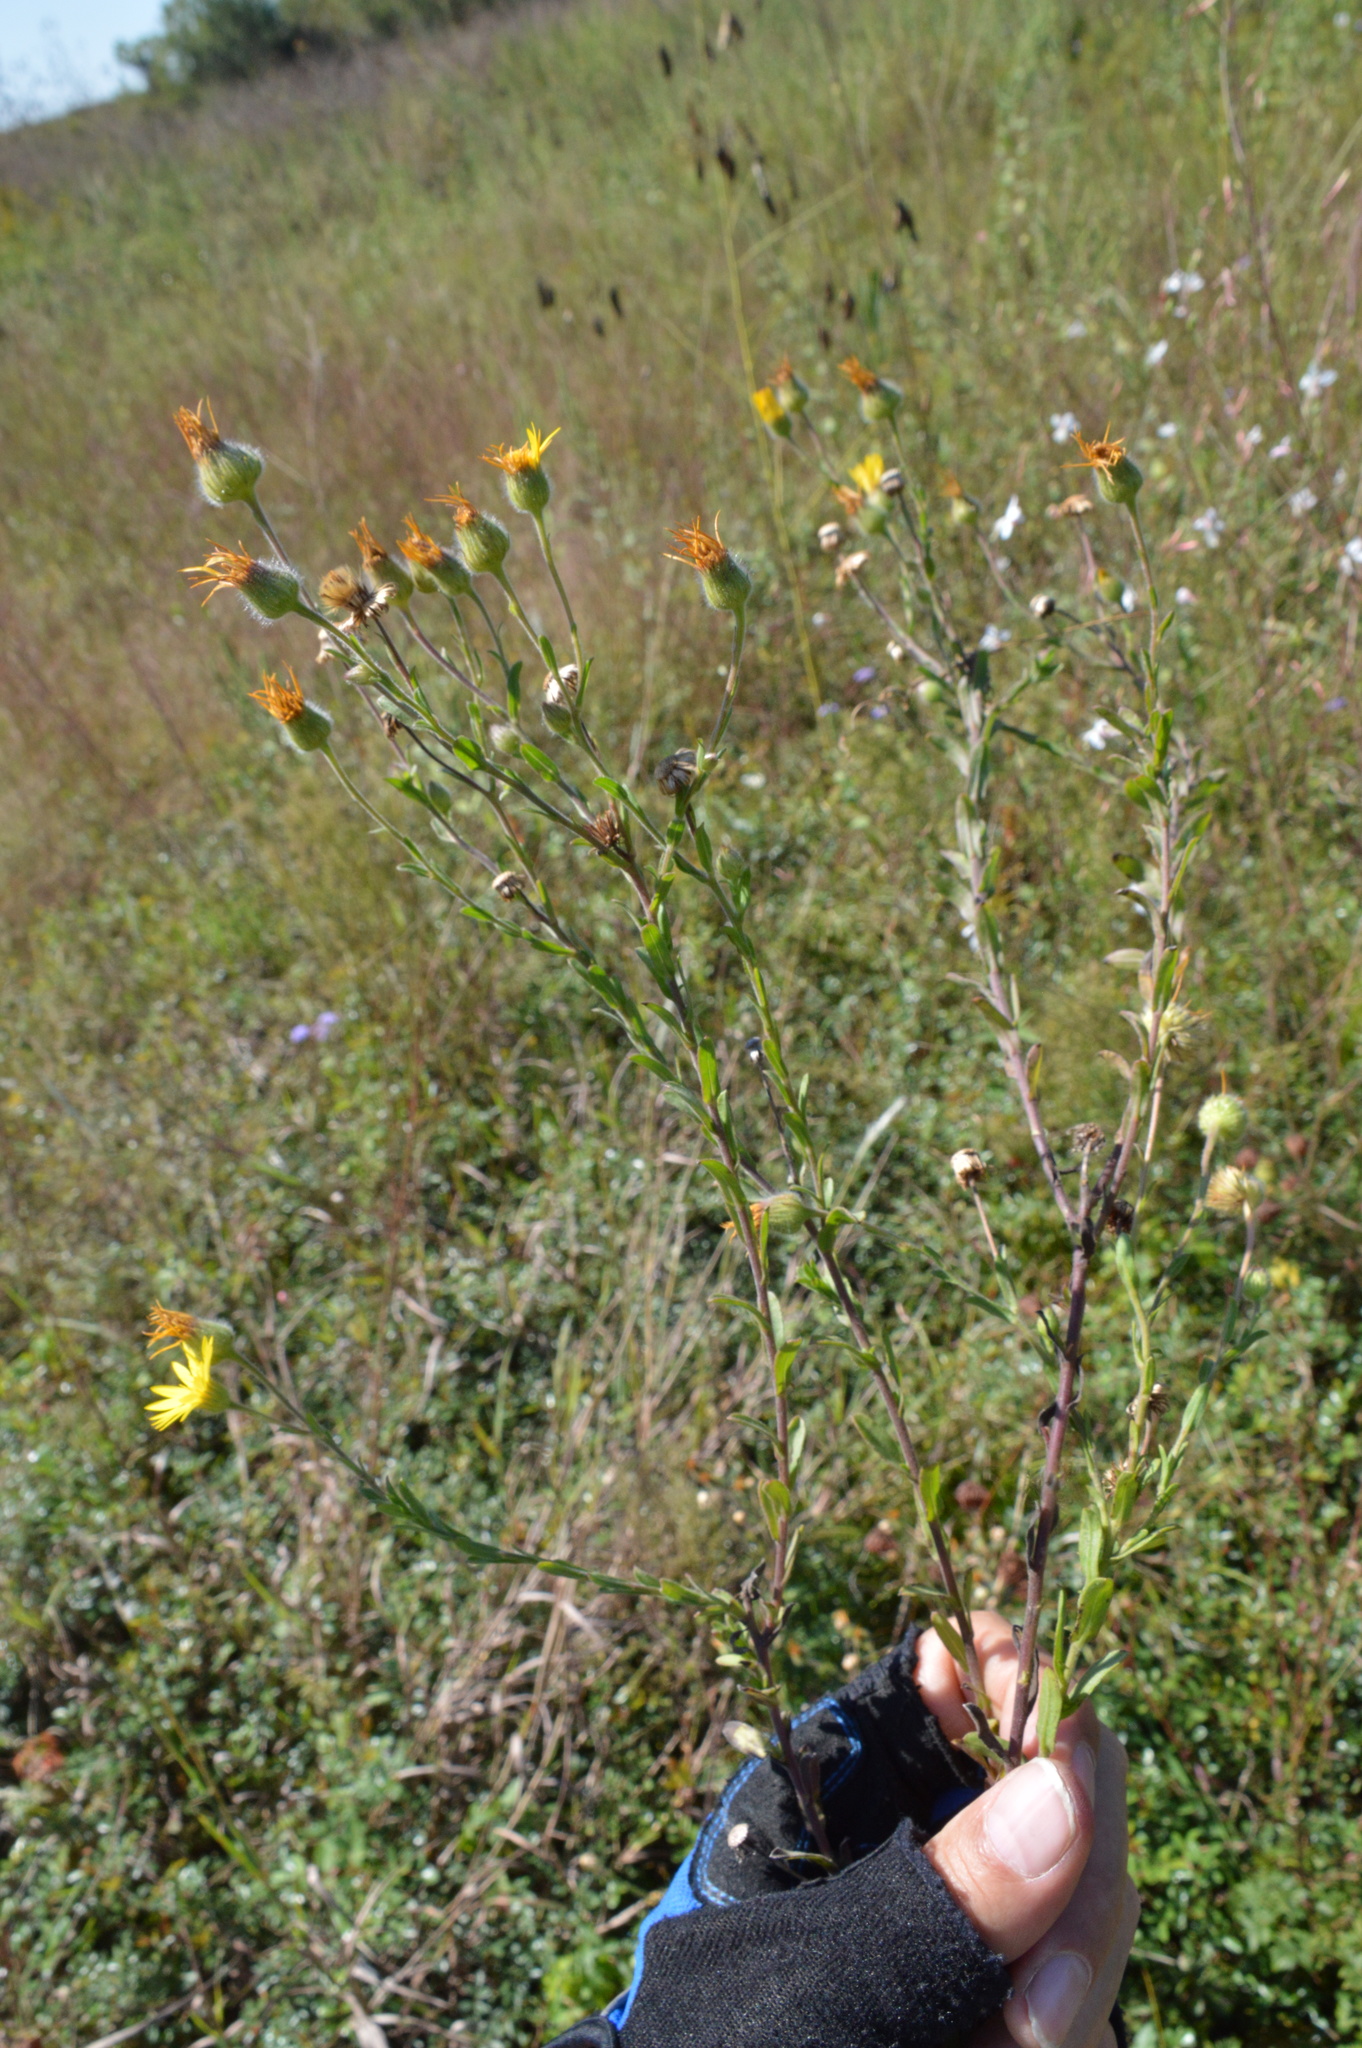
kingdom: Plantae
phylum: Tracheophyta
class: Magnoliopsida
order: Asterales
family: Asteraceae
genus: Bradburia
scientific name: Bradburia pilosa
